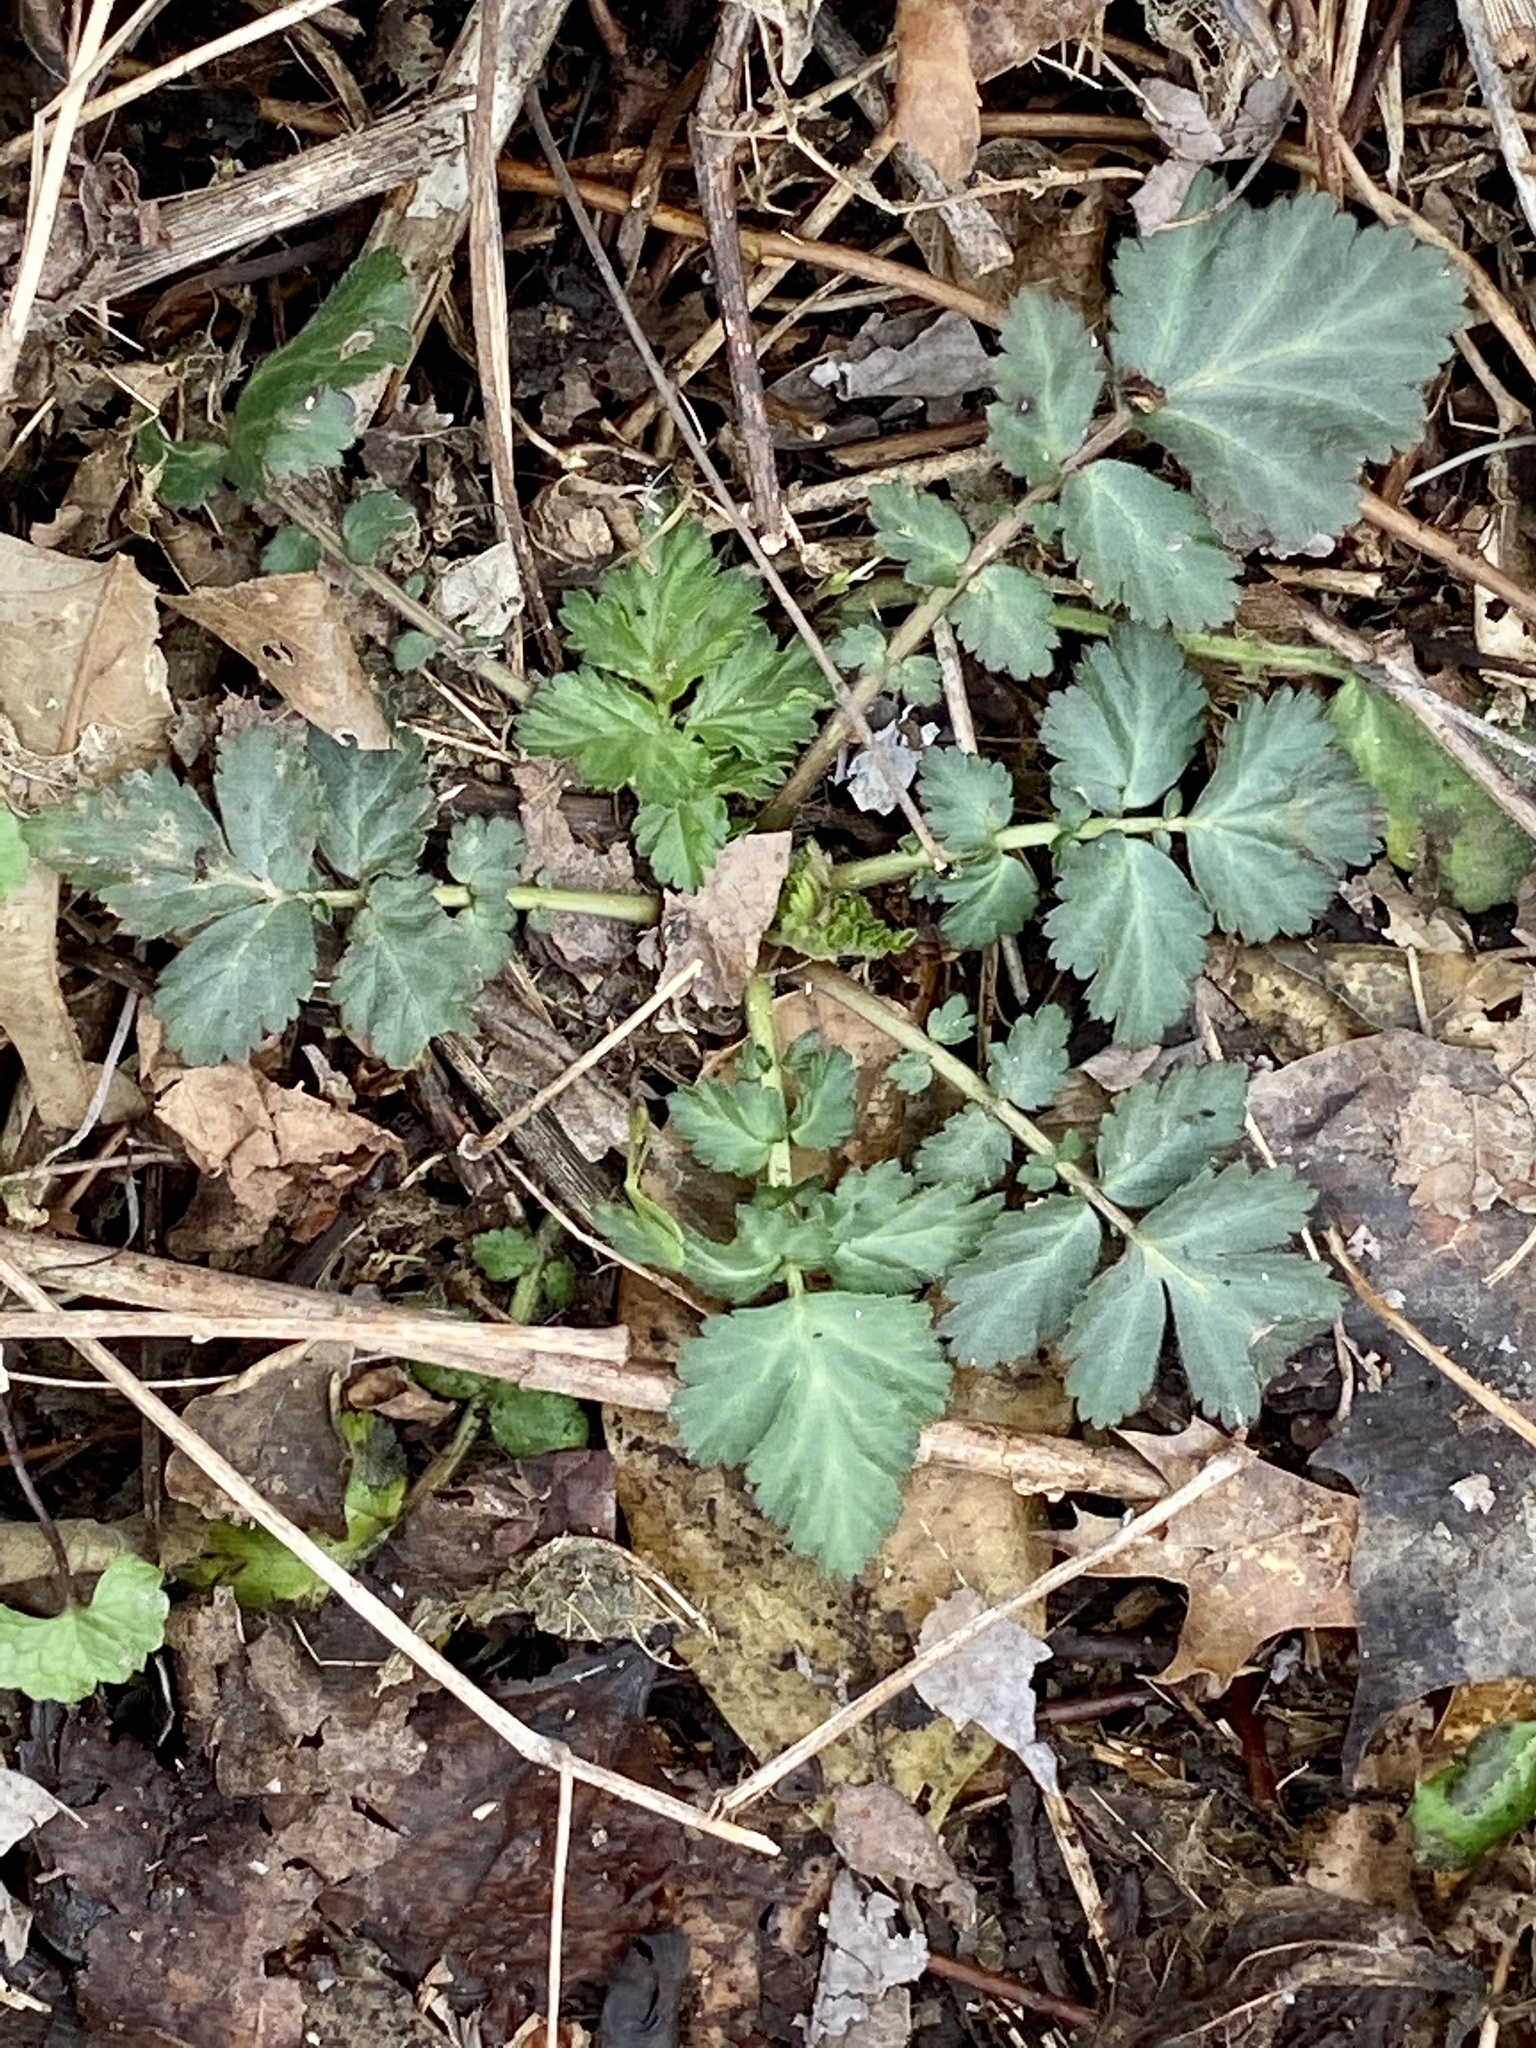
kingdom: Plantae
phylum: Tracheophyta
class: Magnoliopsida
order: Rosales
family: Rosaceae
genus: Geum
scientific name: Geum canadense
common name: White avens
